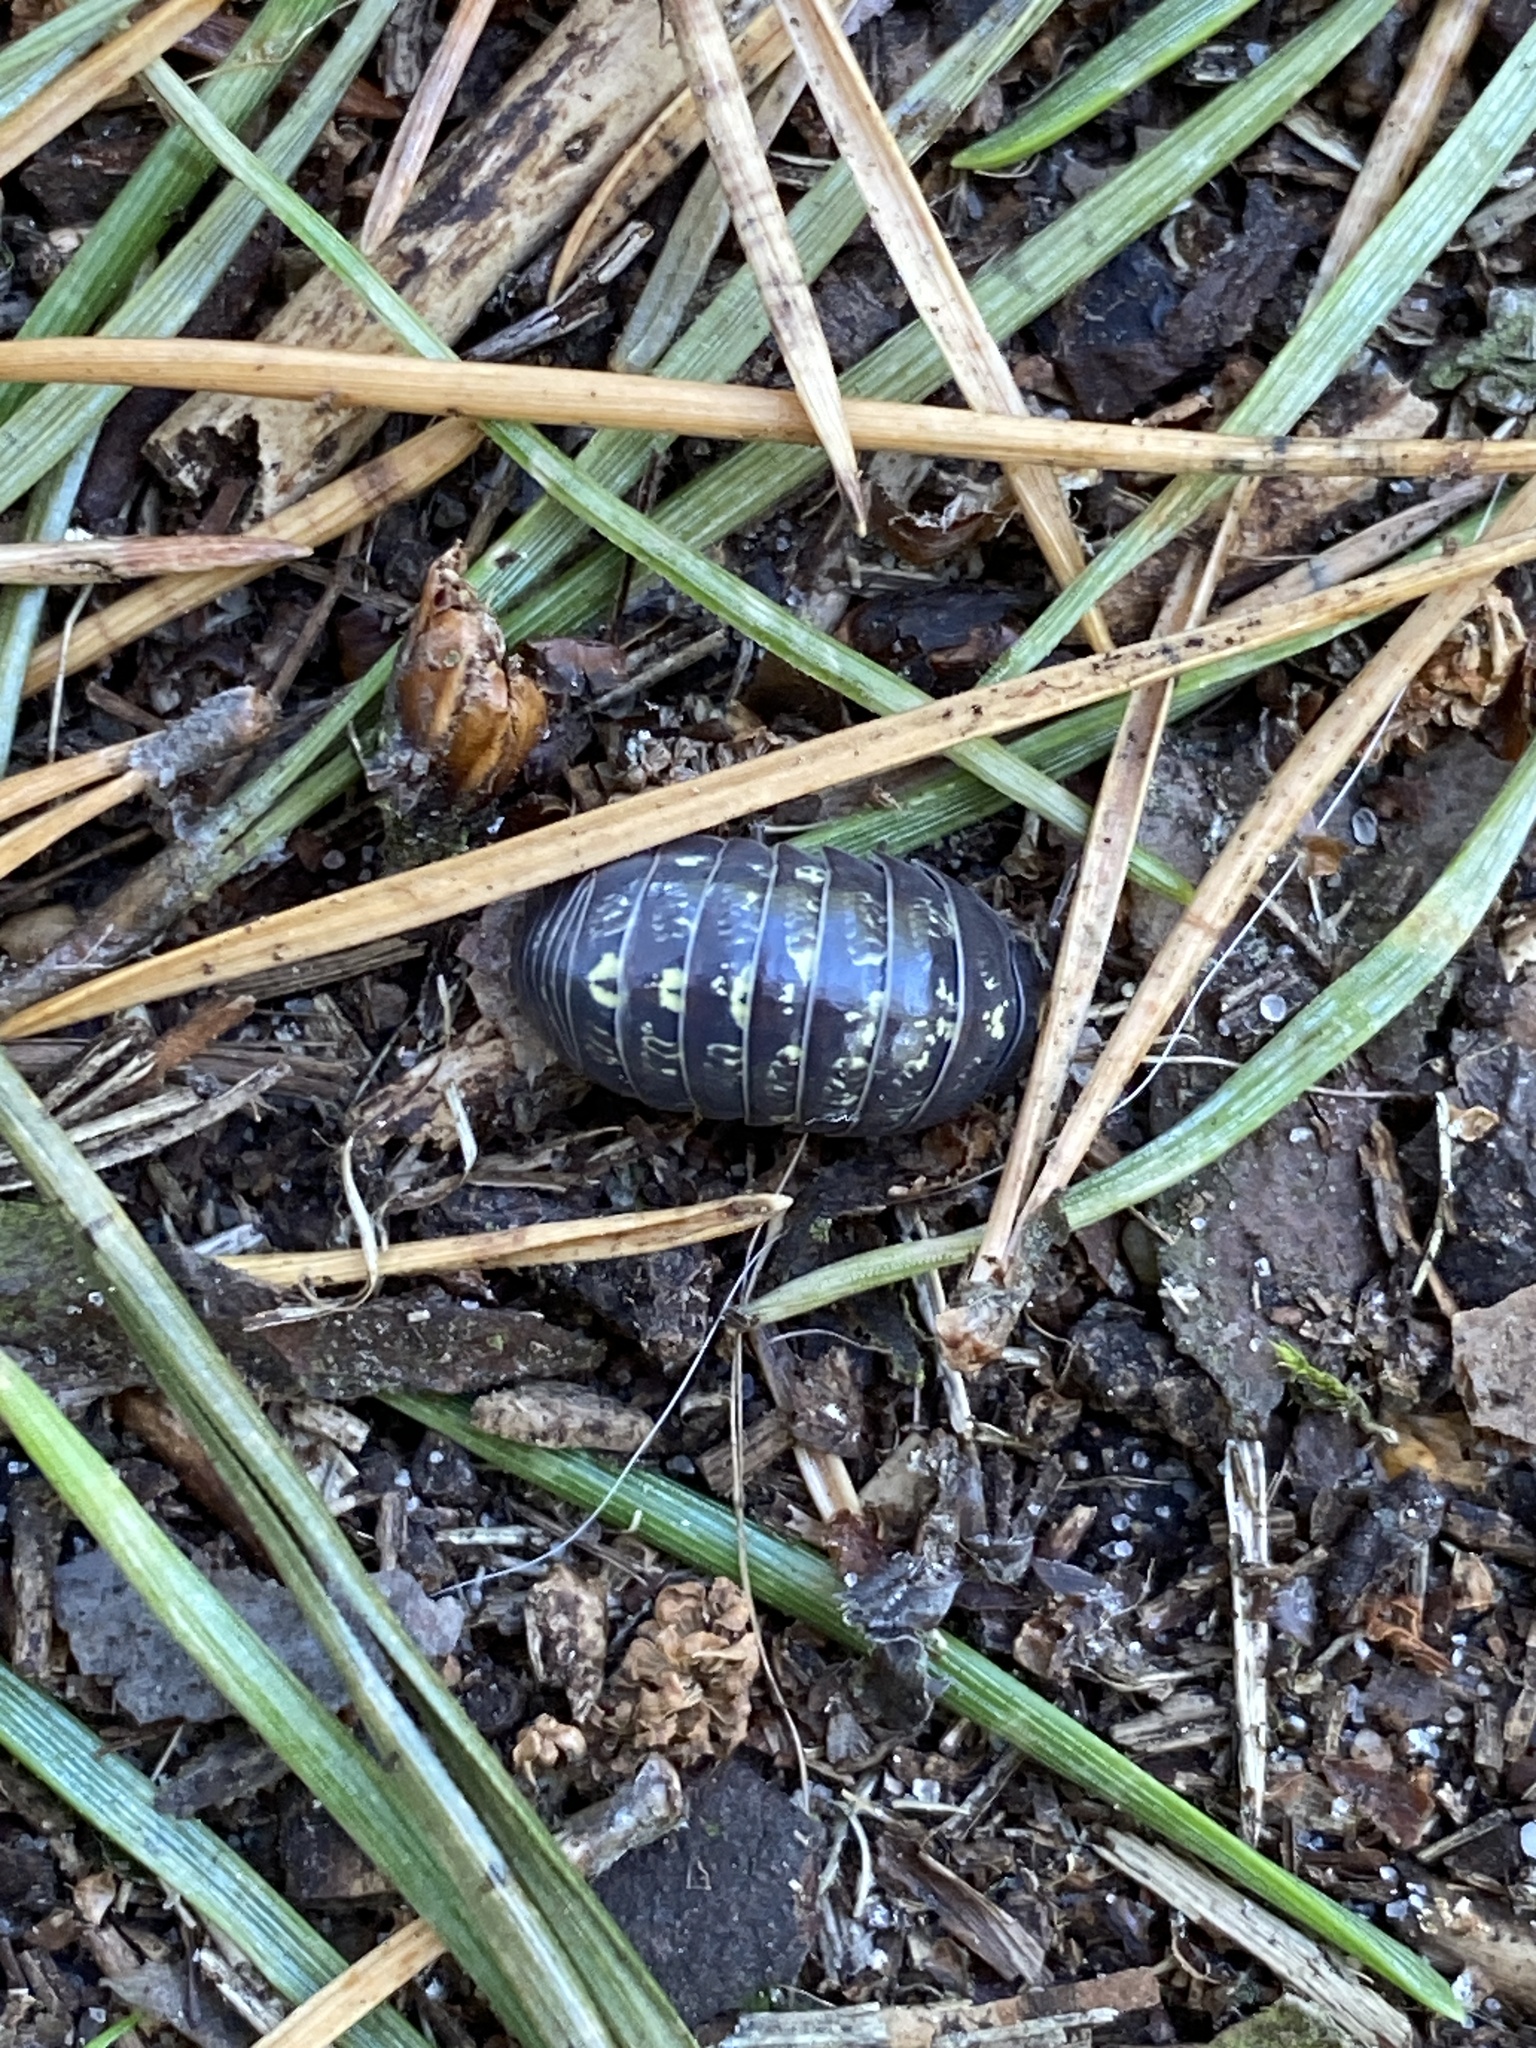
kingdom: Animalia
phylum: Arthropoda
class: Malacostraca
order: Isopoda
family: Oniscidae
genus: Oniscus
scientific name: Oniscus asellus
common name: Common shiny woodlouse
